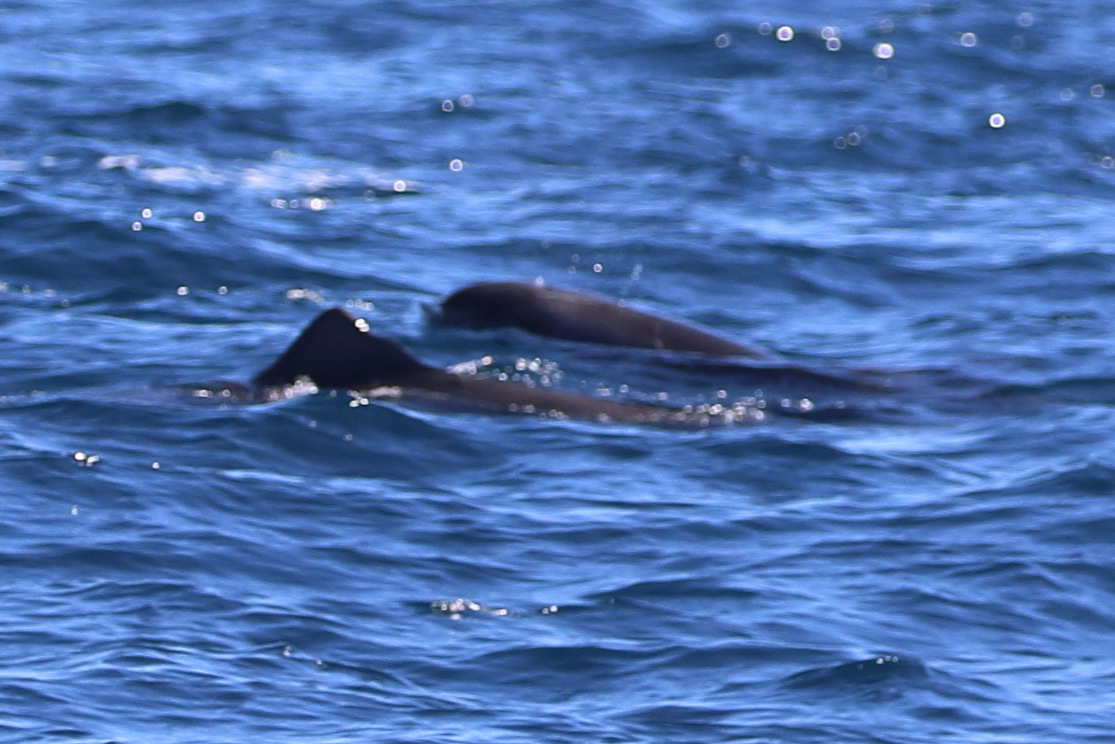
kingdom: Animalia
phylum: Chordata
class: Mammalia
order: Cetacea
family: Delphinidae
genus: Feresa
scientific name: Feresa attenuata
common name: Pygmy killer whale
